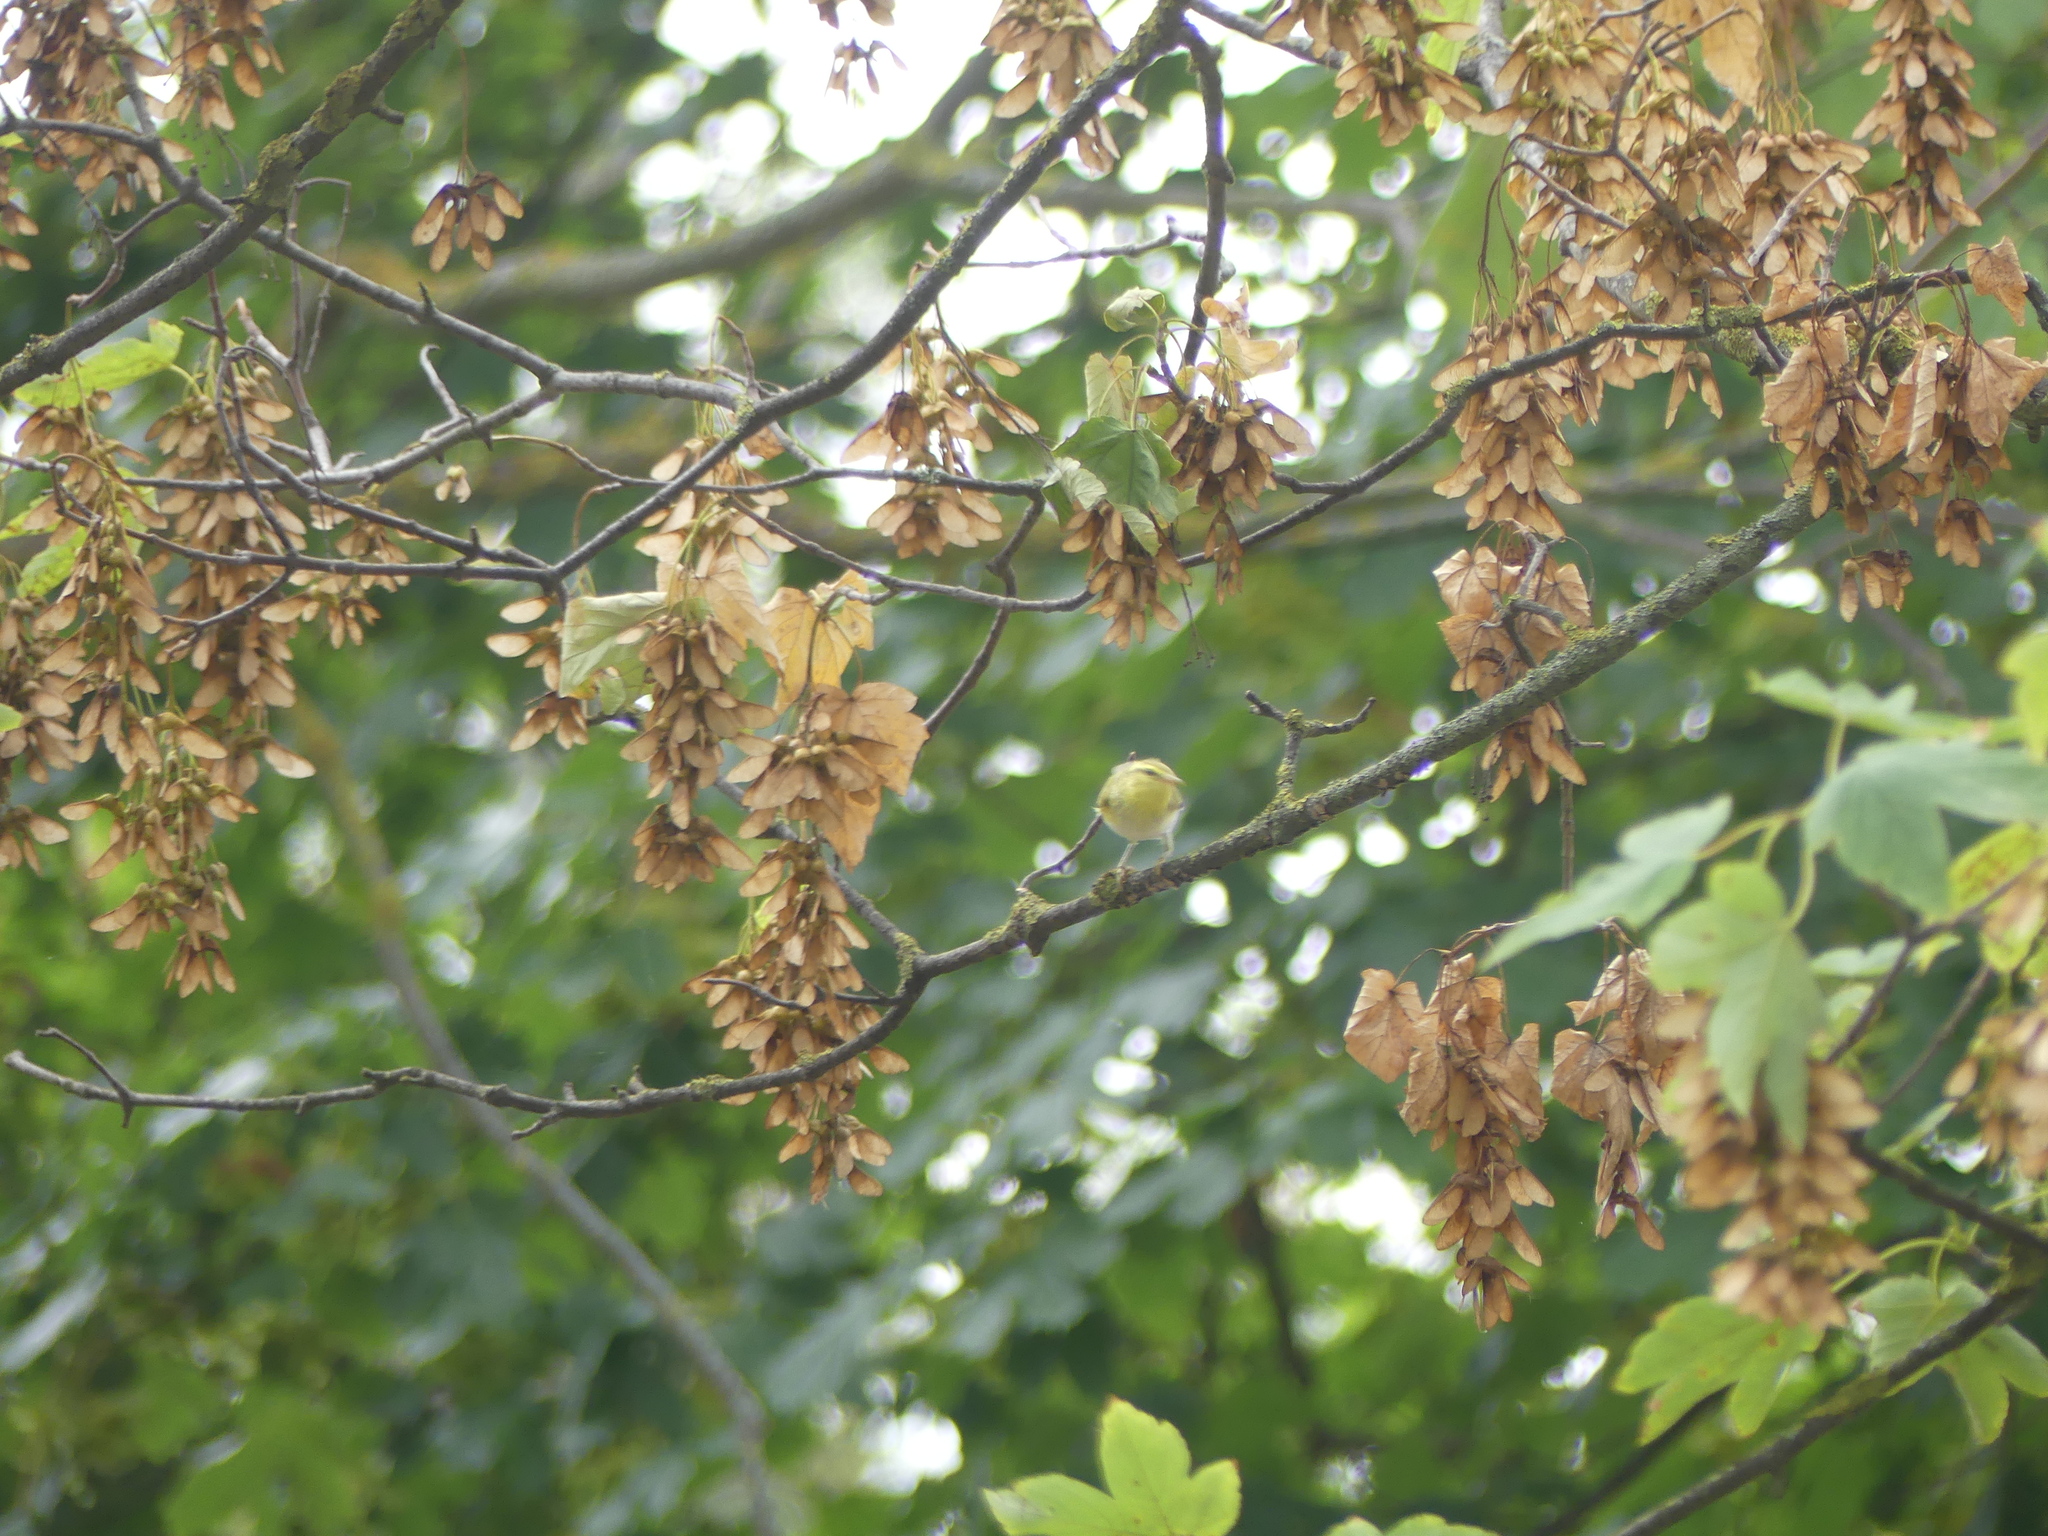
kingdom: Animalia
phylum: Chordata
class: Aves
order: Passeriformes
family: Phylloscopidae
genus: Phylloscopus
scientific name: Phylloscopus sibillatrix
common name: Wood warbler
